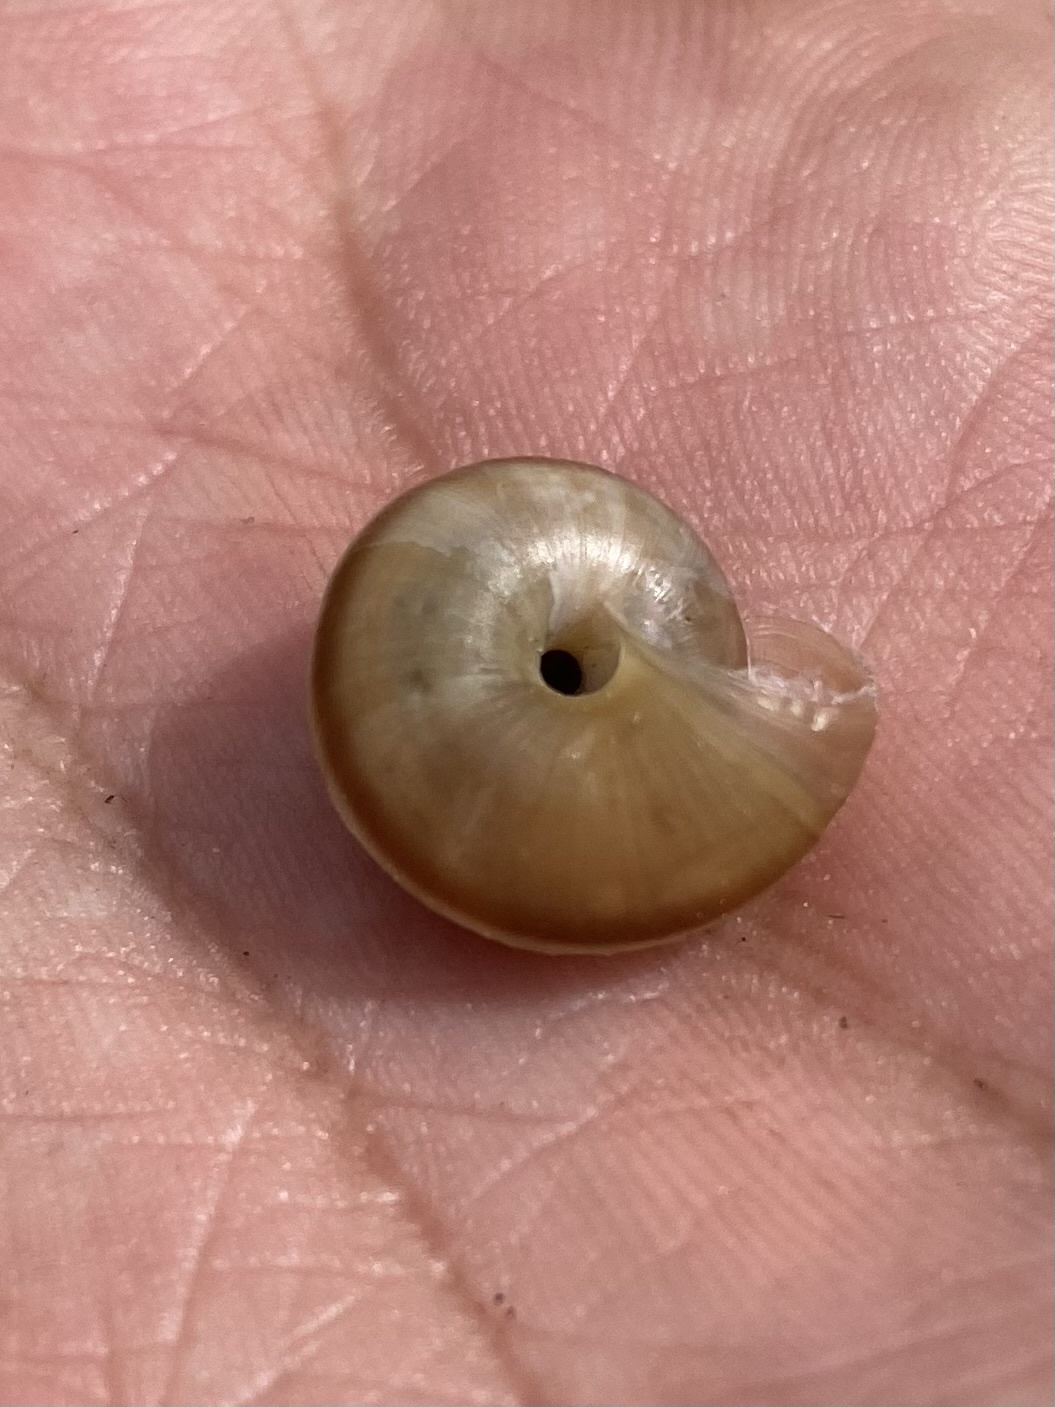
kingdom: Animalia
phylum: Mollusca
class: Gastropoda
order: Stylommatophora
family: Hygromiidae
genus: Fruticocampylaea
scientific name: Fruticocampylaea narzanensis
